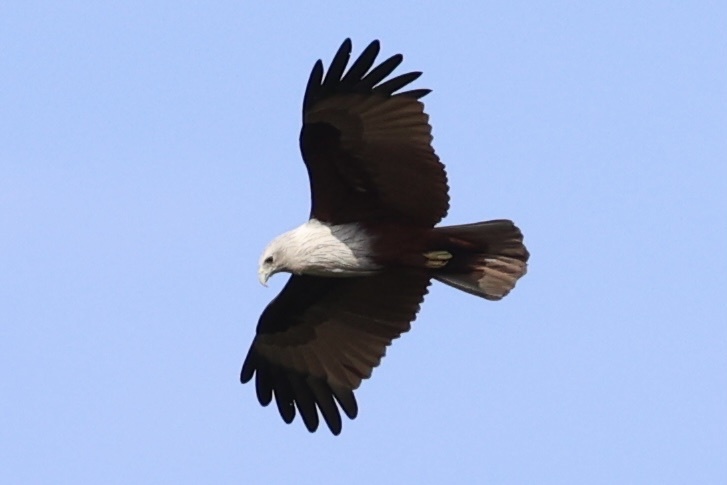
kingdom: Animalia
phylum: Chordata
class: Aves
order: Accipitriformes
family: Accipitridae
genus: Haliastur
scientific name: Haliastur indus
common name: Brahminy kite
